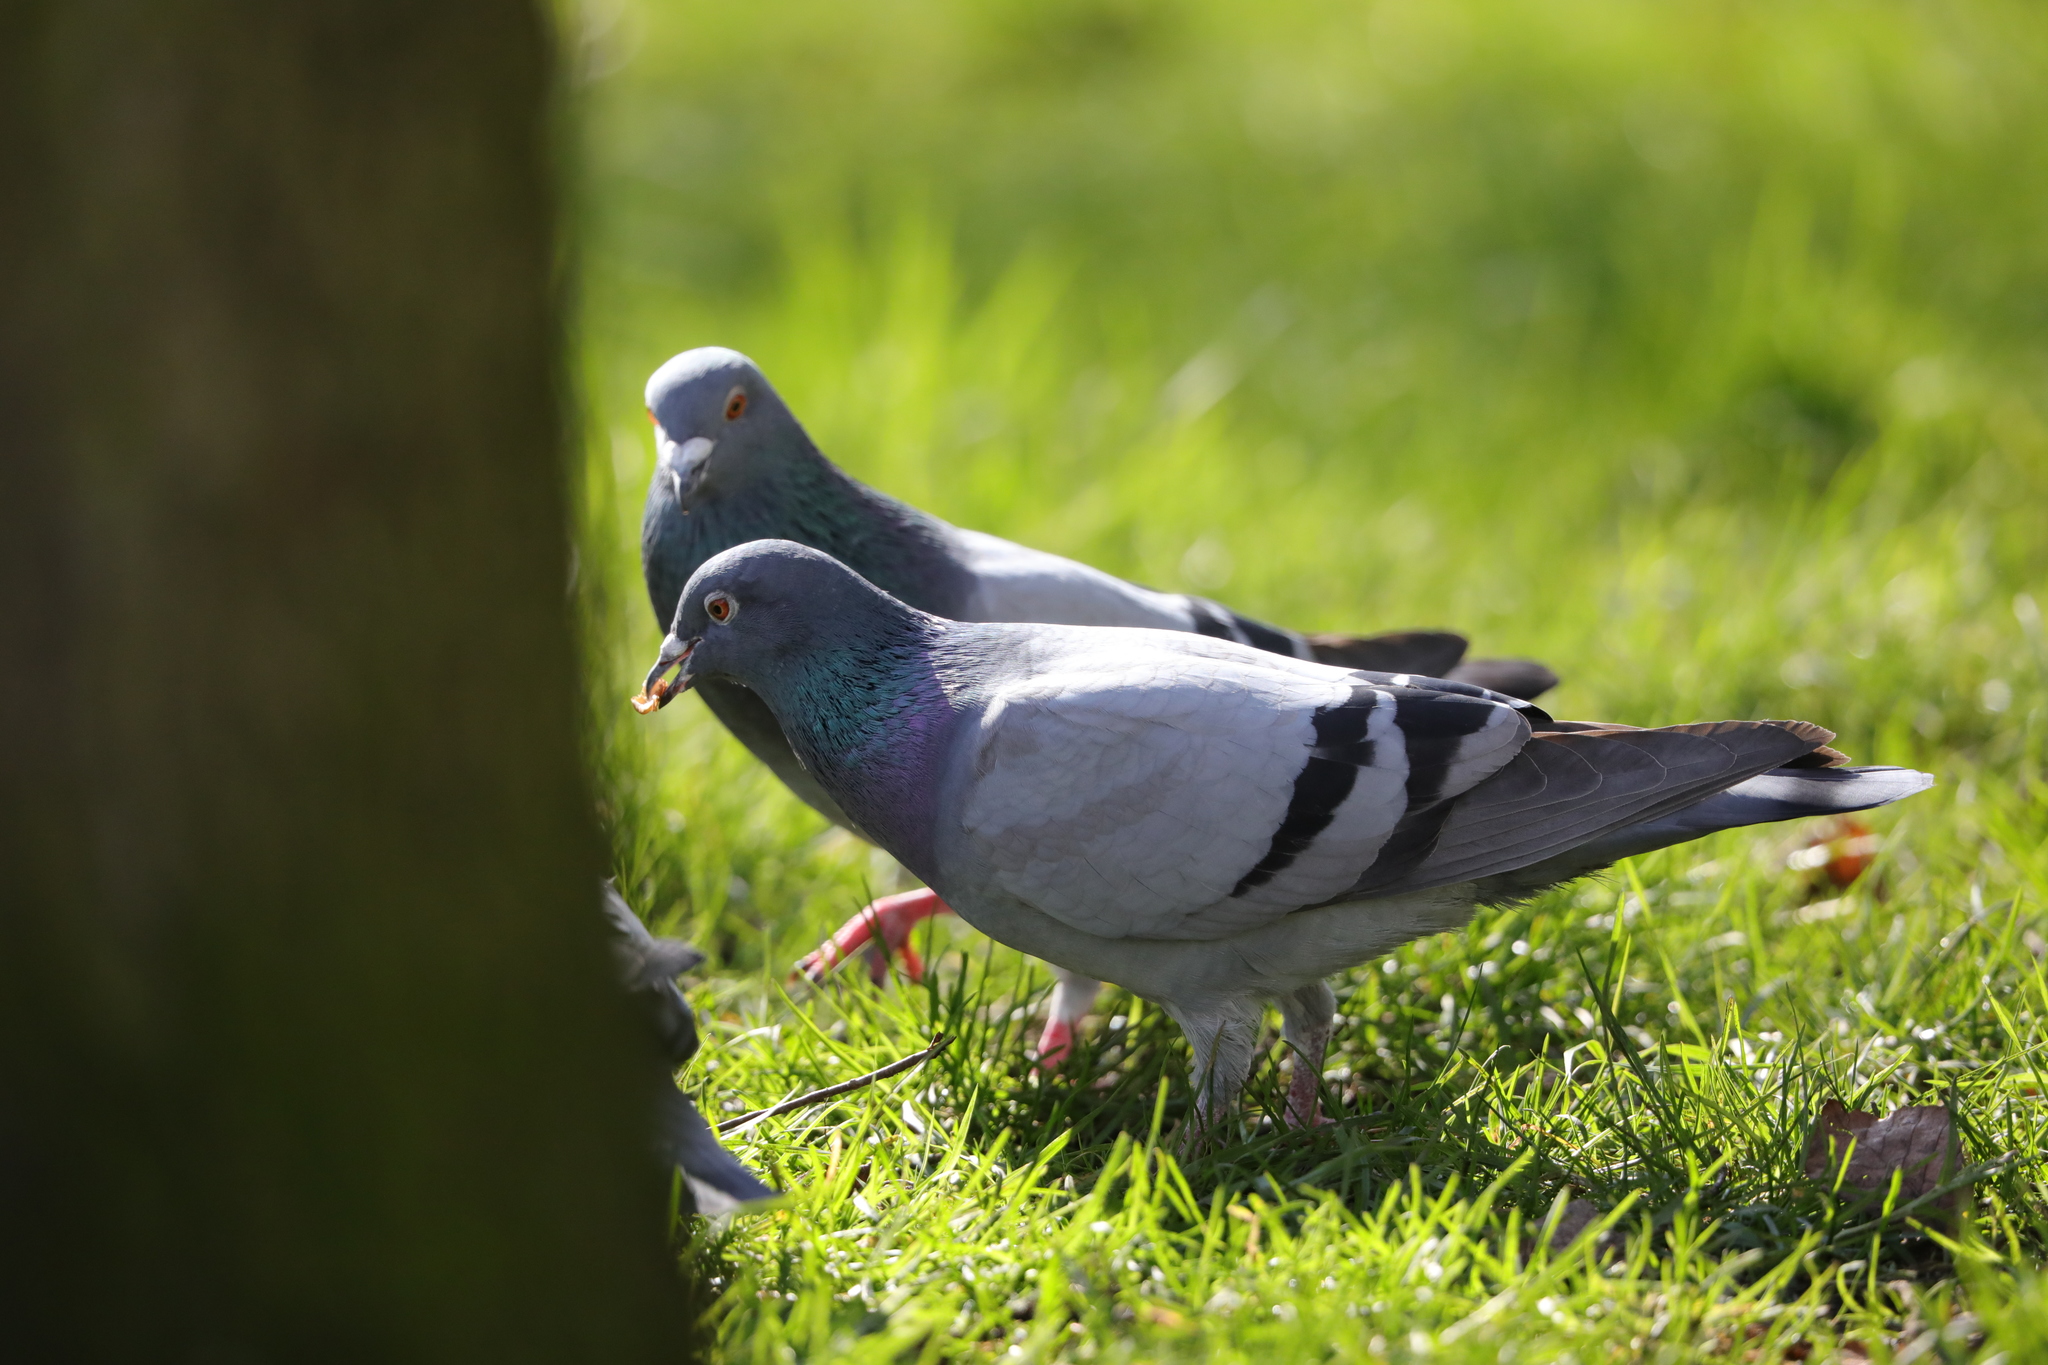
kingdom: Animalia
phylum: Chordata
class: Aves
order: Columbiformes
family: Columbidae
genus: Columba
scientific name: Columba livia
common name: Rock pigeon
